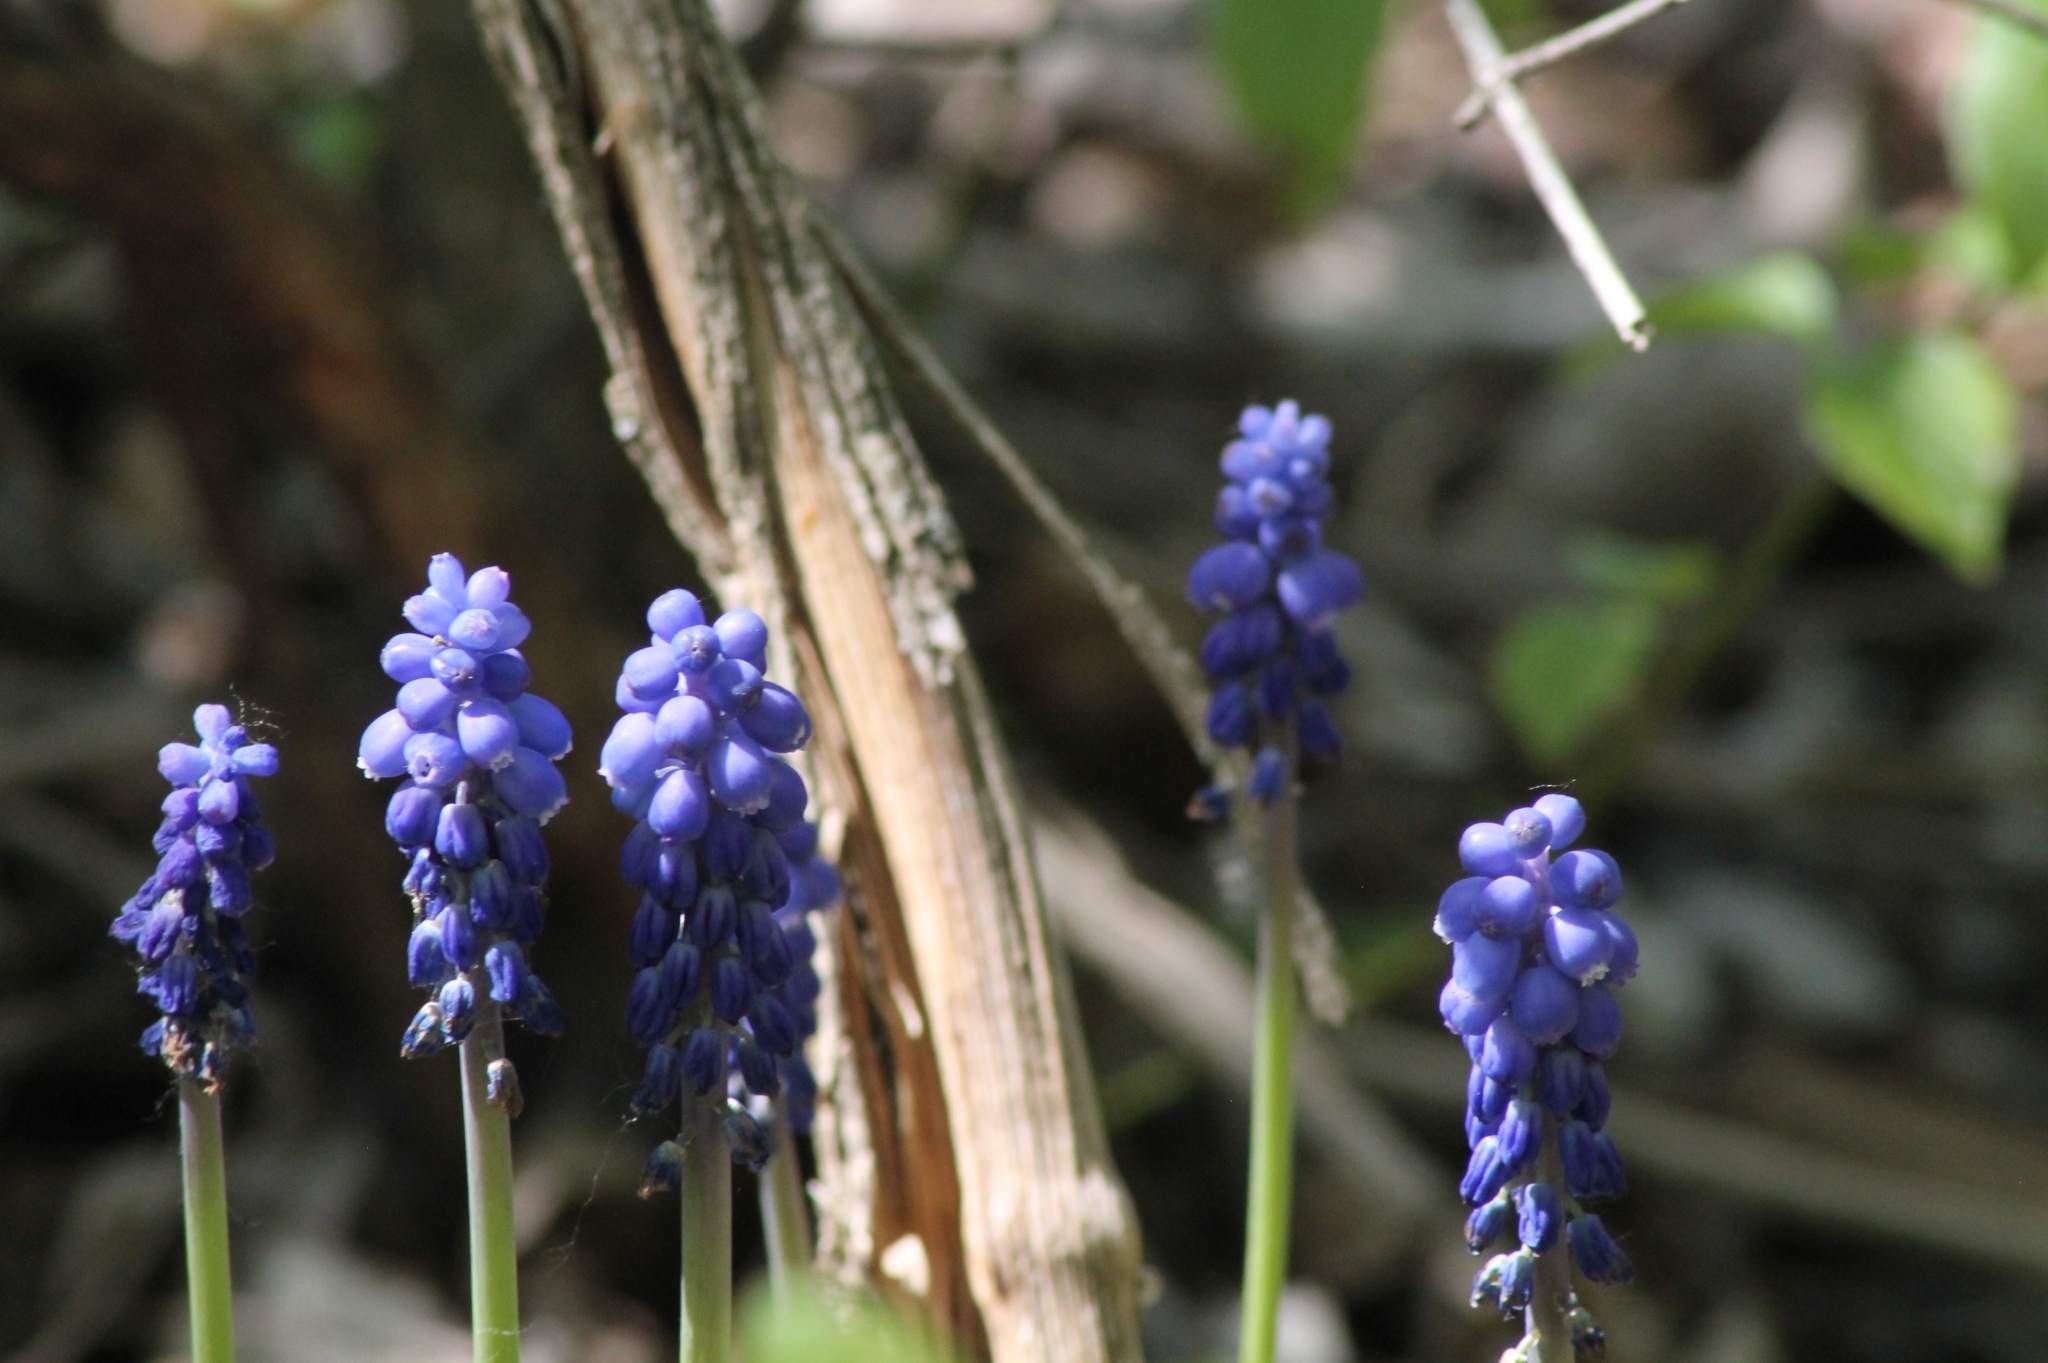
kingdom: Plantae
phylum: Tracheophyta
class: Liliopsida
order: Asparagales
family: Asparagaceae
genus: Muscari
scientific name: Muscari
